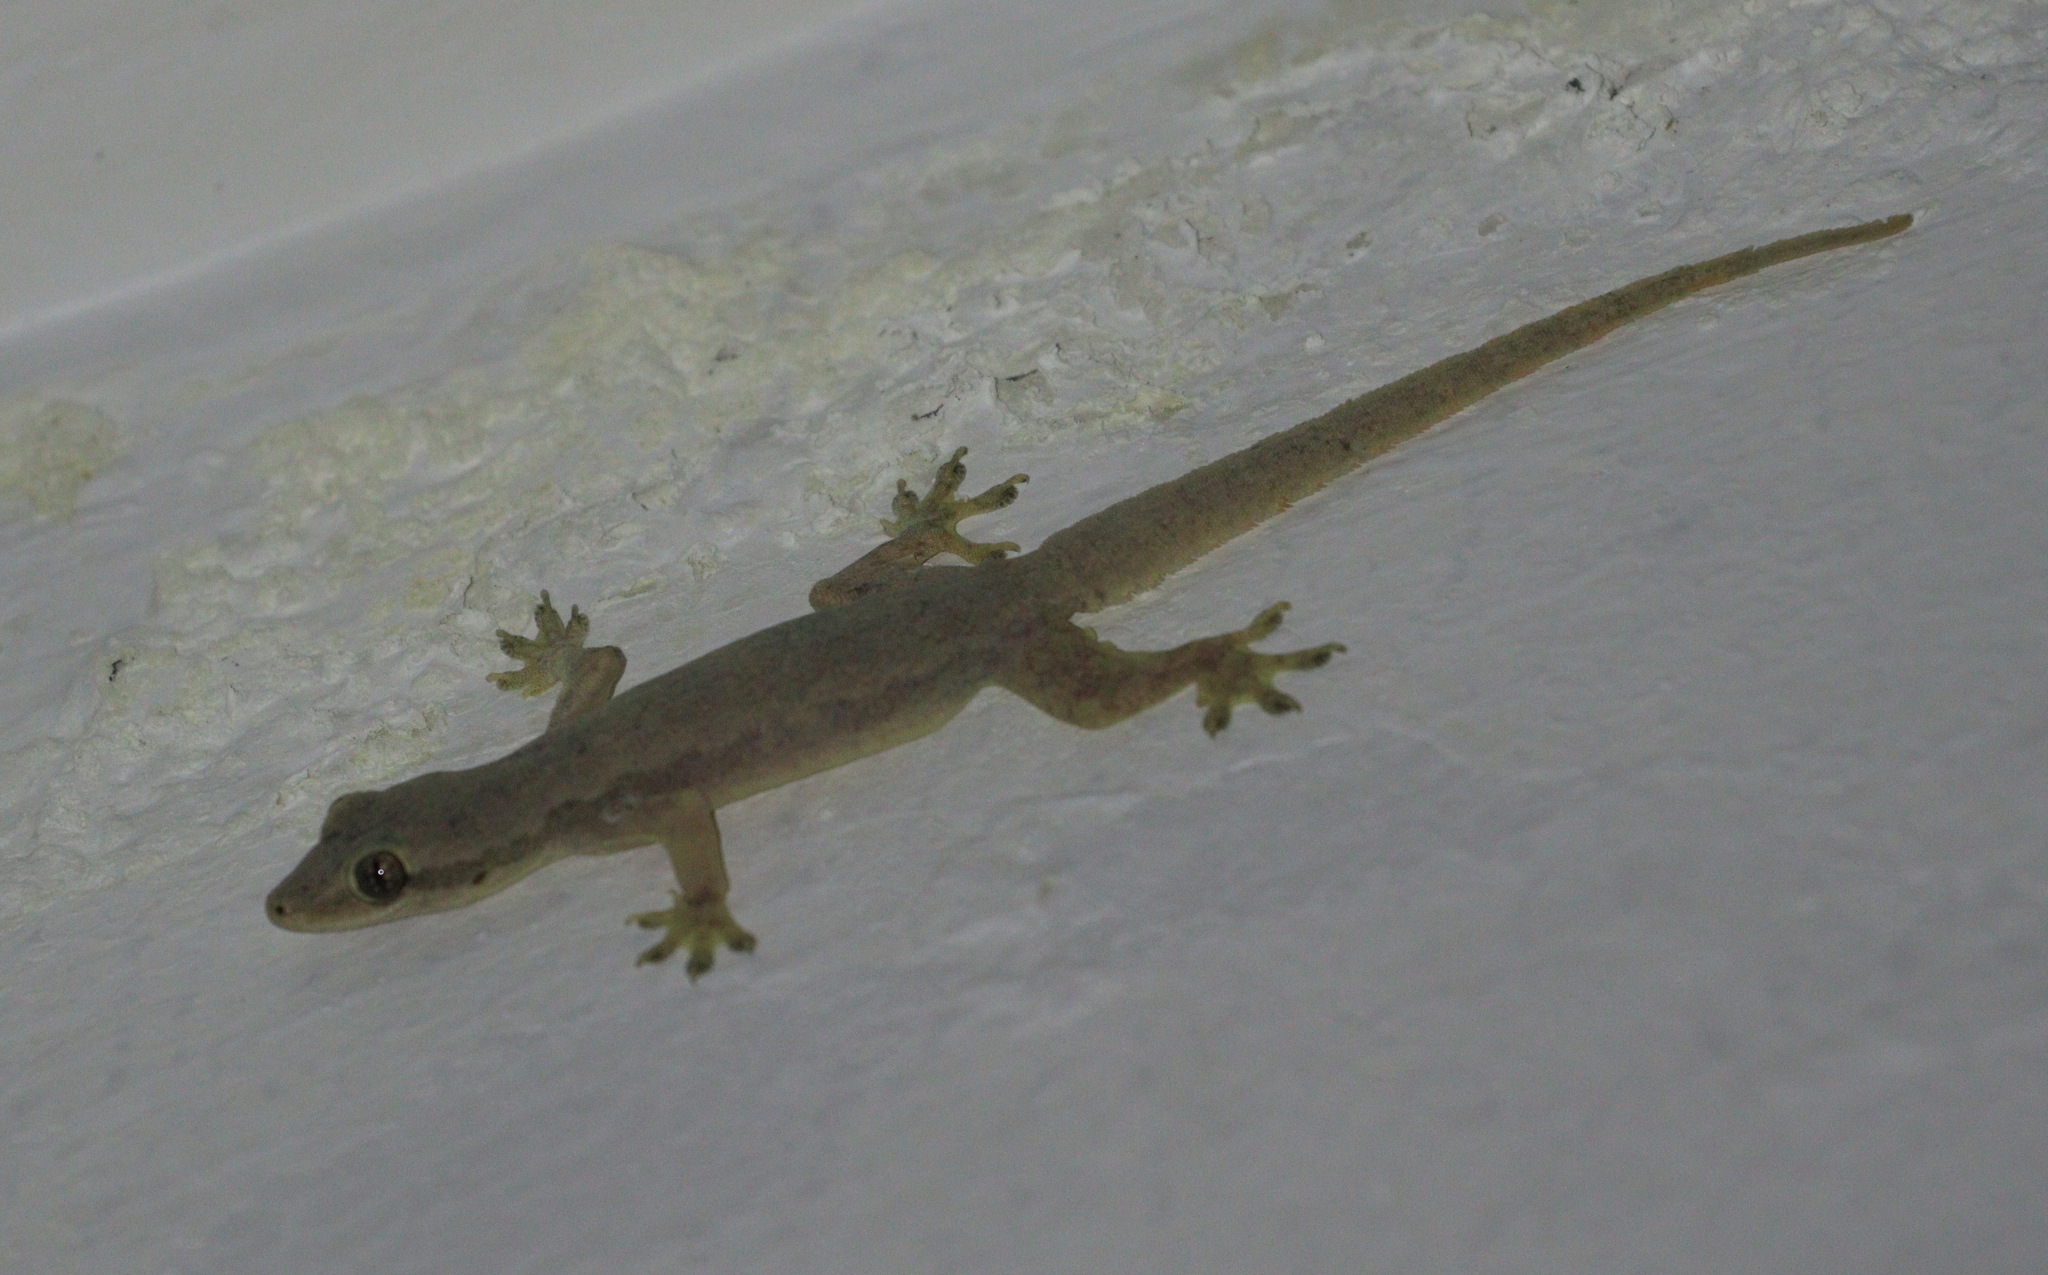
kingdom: Animalia
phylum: Chordata
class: Squamata
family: Gekkonidae
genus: Hemidactylus
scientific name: Hemidactylus platyurus
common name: Flat-tailed house gecko
